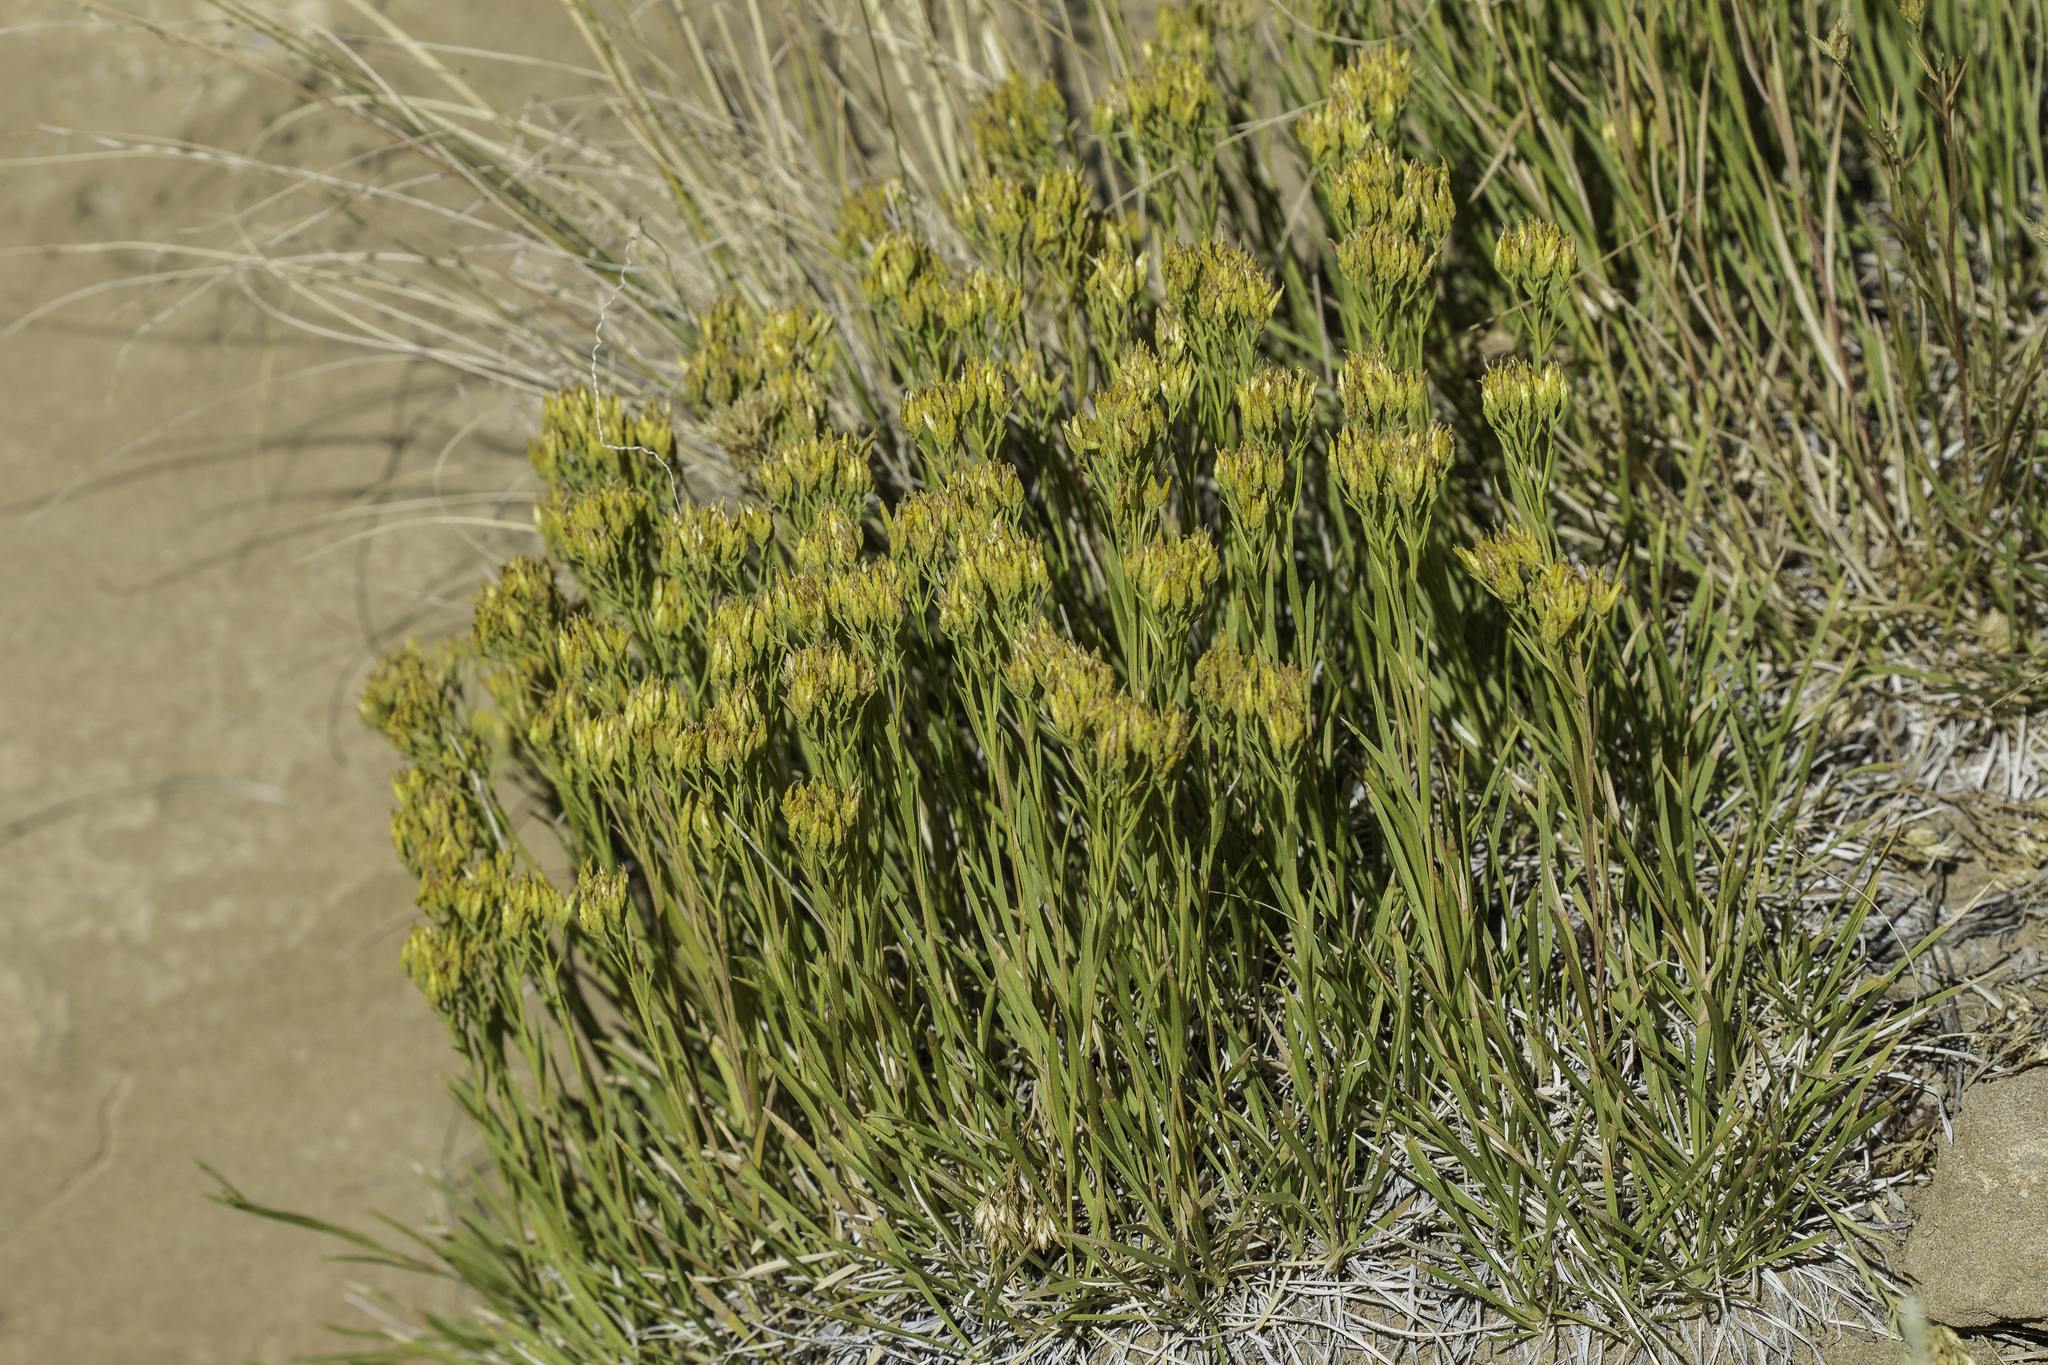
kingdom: Plantae
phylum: Tracheophyta
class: Magnoliopsida
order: Asterales
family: Asteraceae
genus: Petradoria
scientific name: Petradoria pumila
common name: Rock-goldenrod
